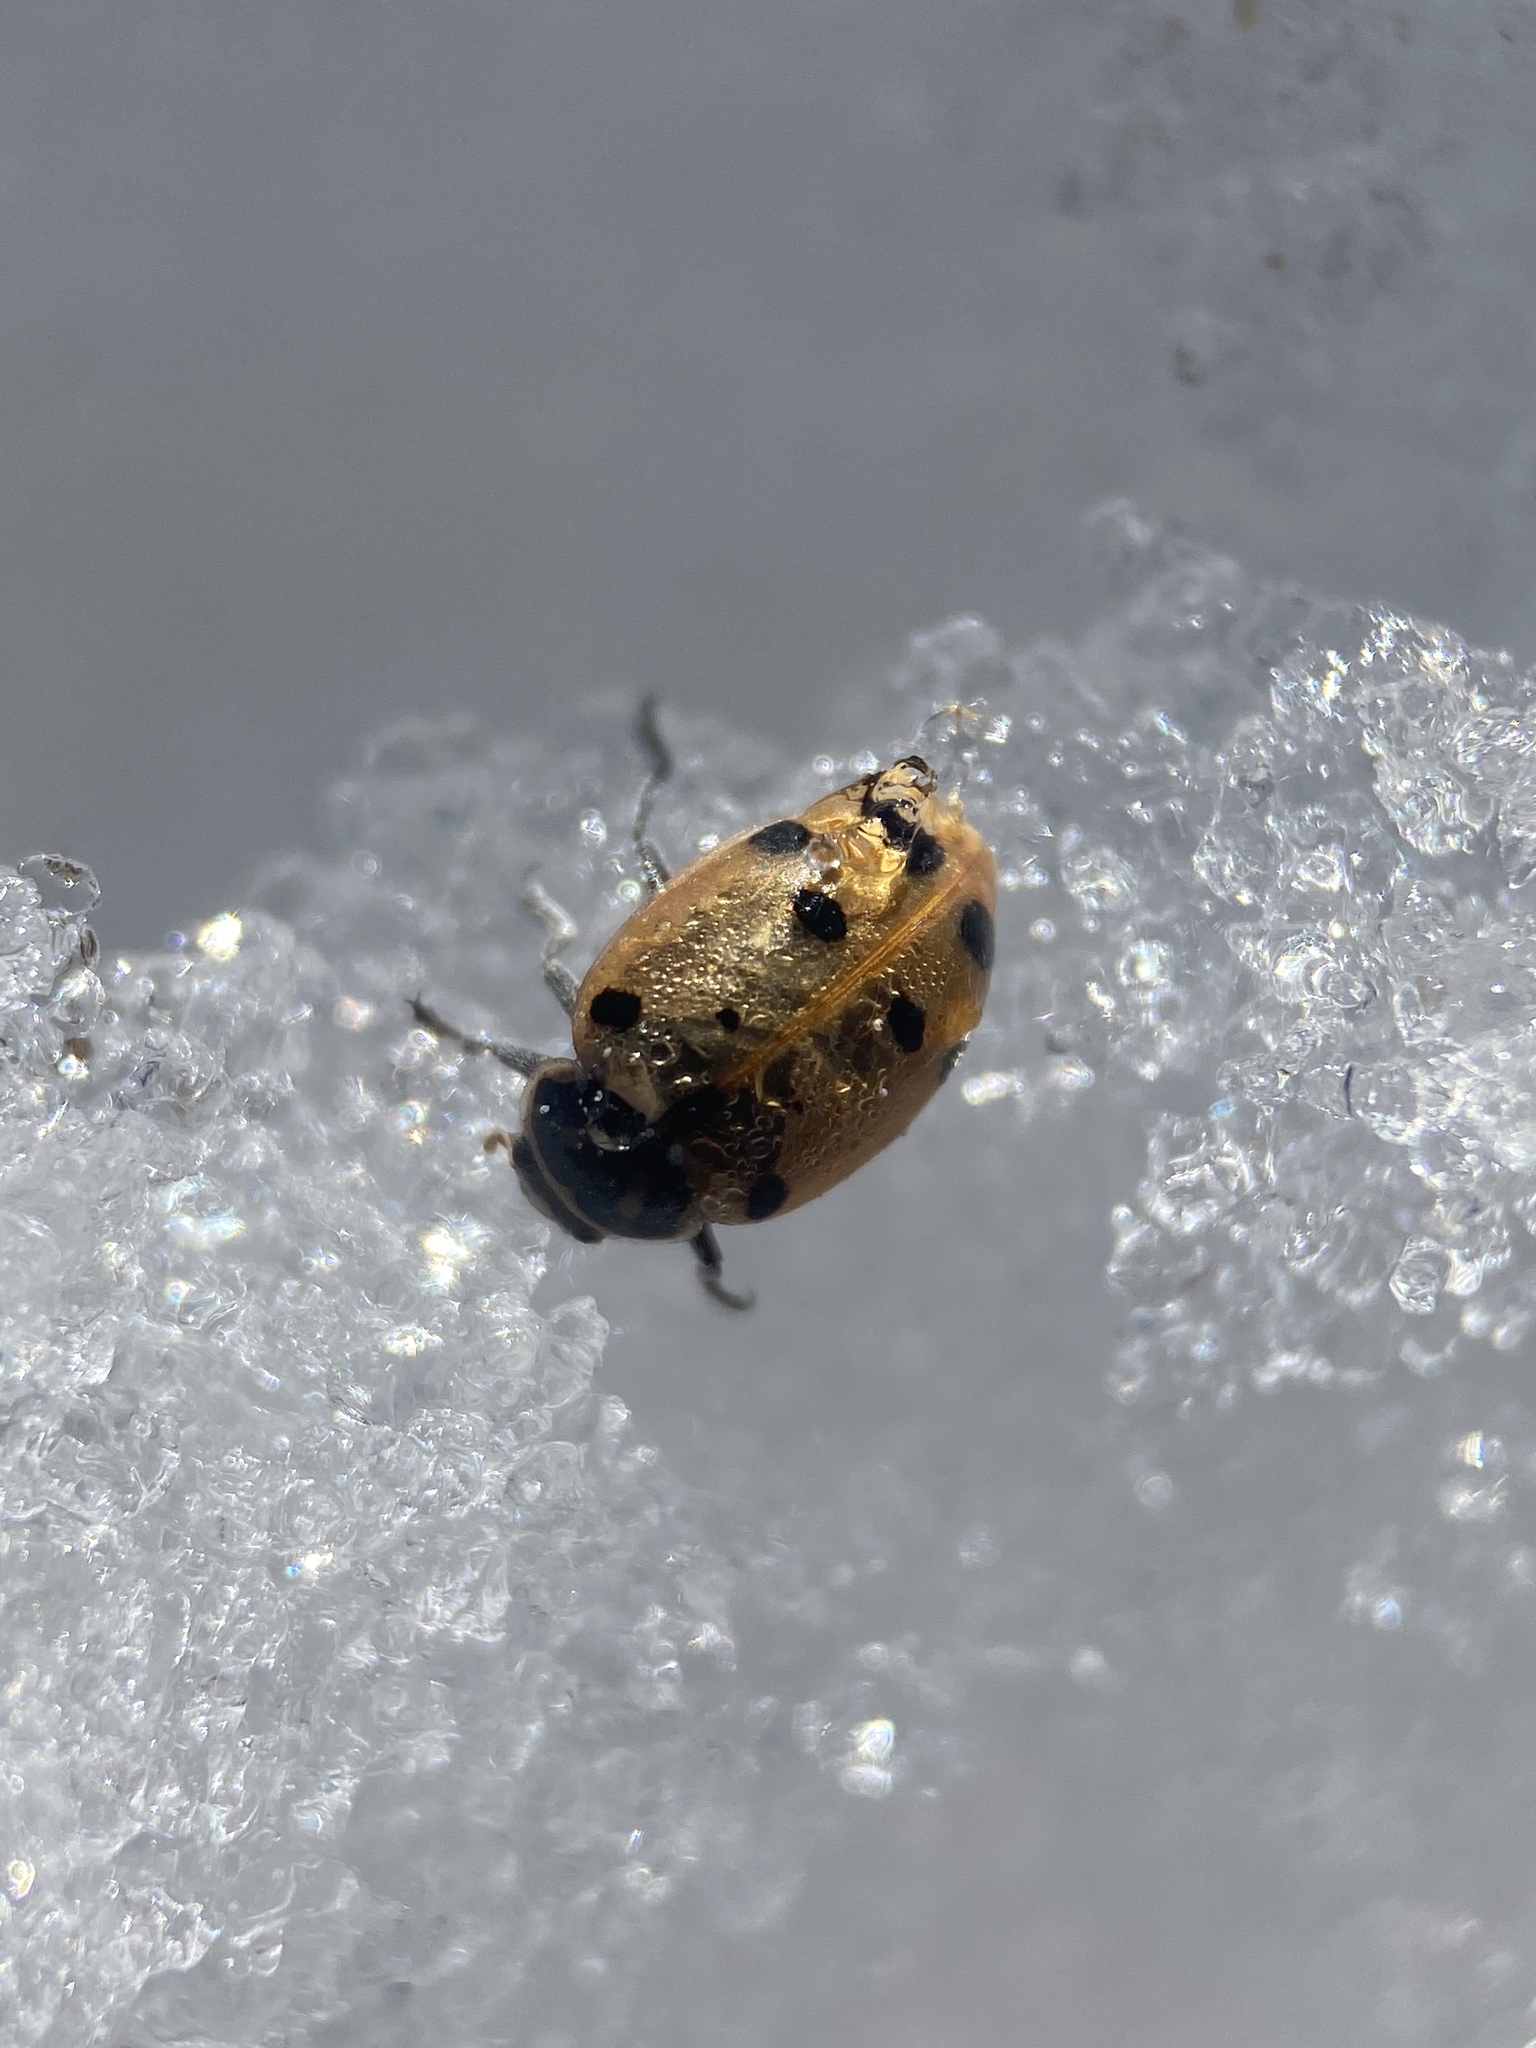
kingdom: Animalia
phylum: Arthropoda
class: Insecta
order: Coleoptera
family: Coccinellidae
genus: Hippodamia
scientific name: Hippodamia convergens
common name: Convergent lady beetle
